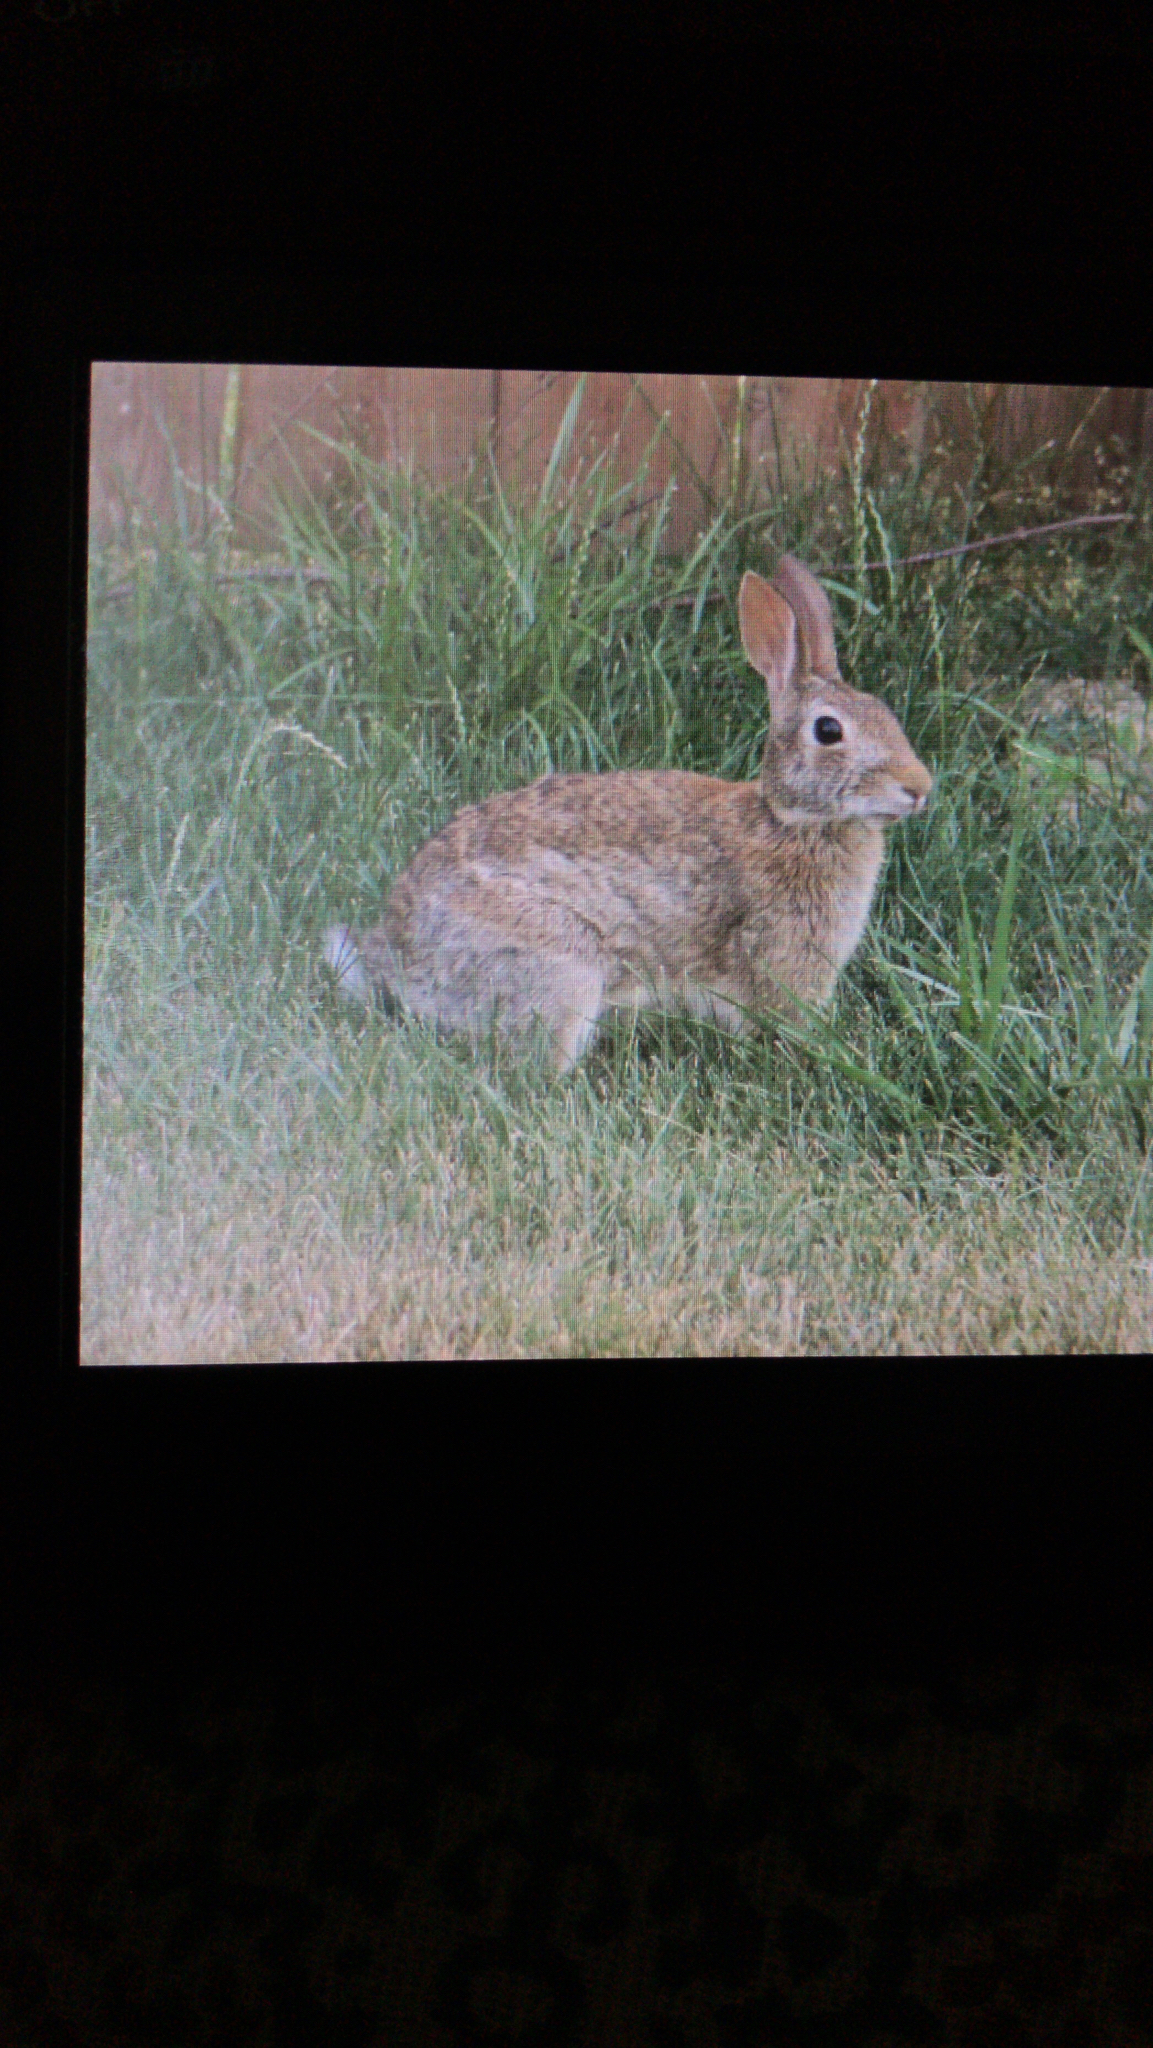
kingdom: Animalia
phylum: Chordata
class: Mammalia
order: Lagomorpha
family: Leporidae
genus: Sylvilagus
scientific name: Sylvilagus floridanus
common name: Eastern cottontail
